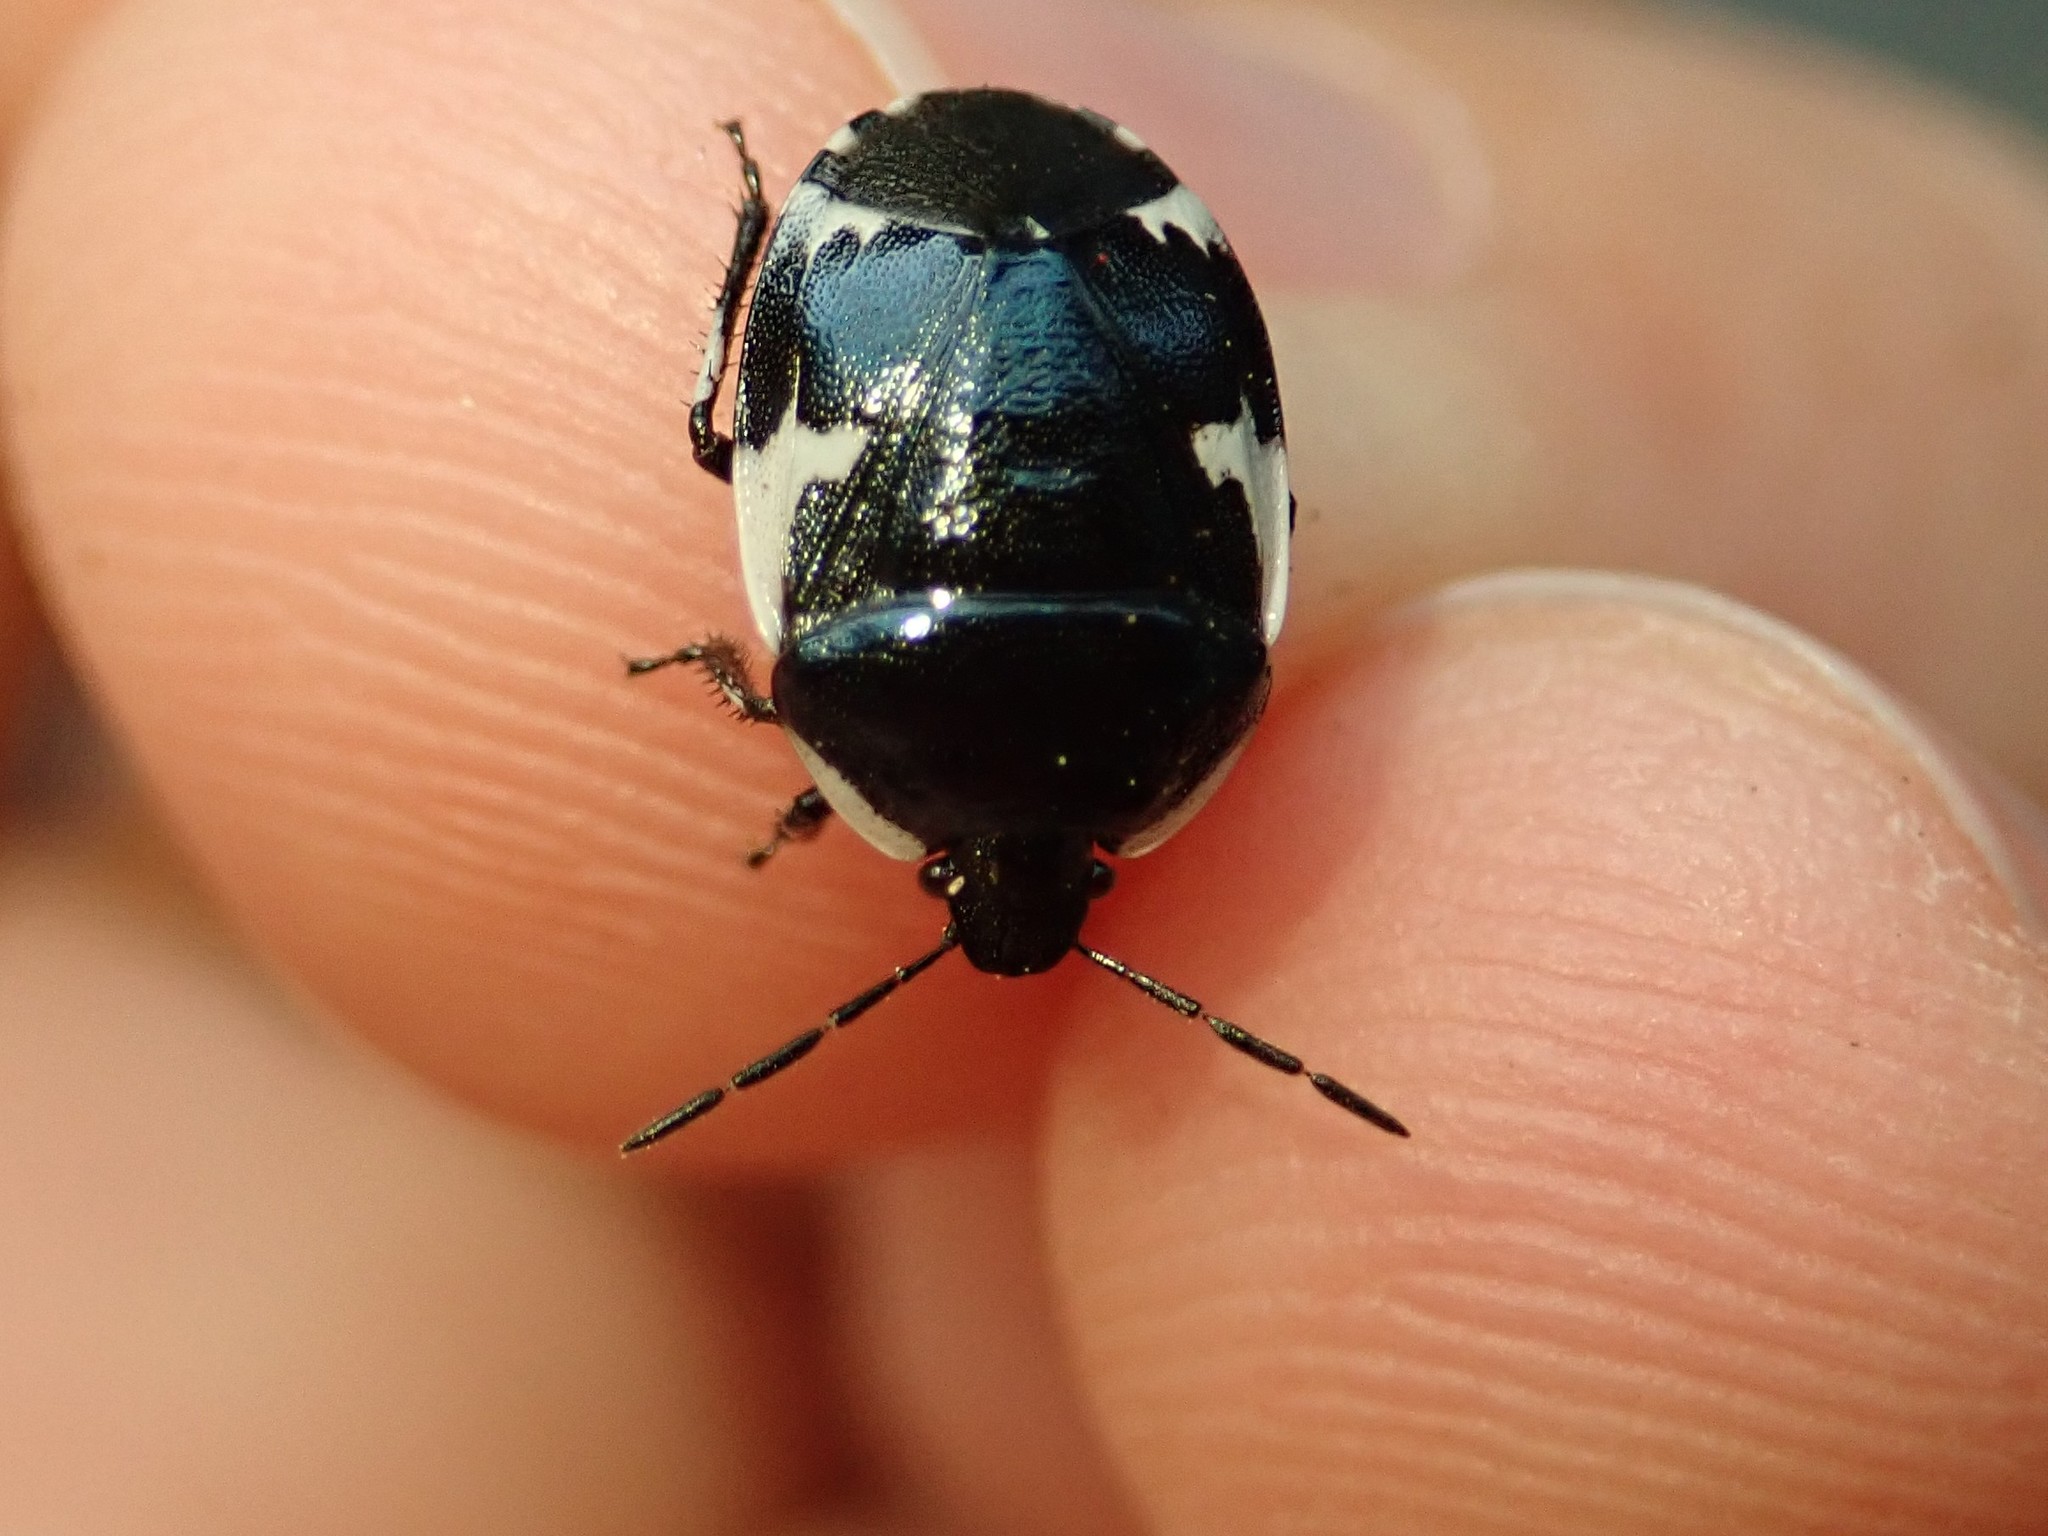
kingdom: Animalia
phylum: Arthropoda
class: Insecta
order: Hemiptera
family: Cydnidae
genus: Tritomegas
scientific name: Tritomegas sexmaculatus
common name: Rambur's pied shieldbug
